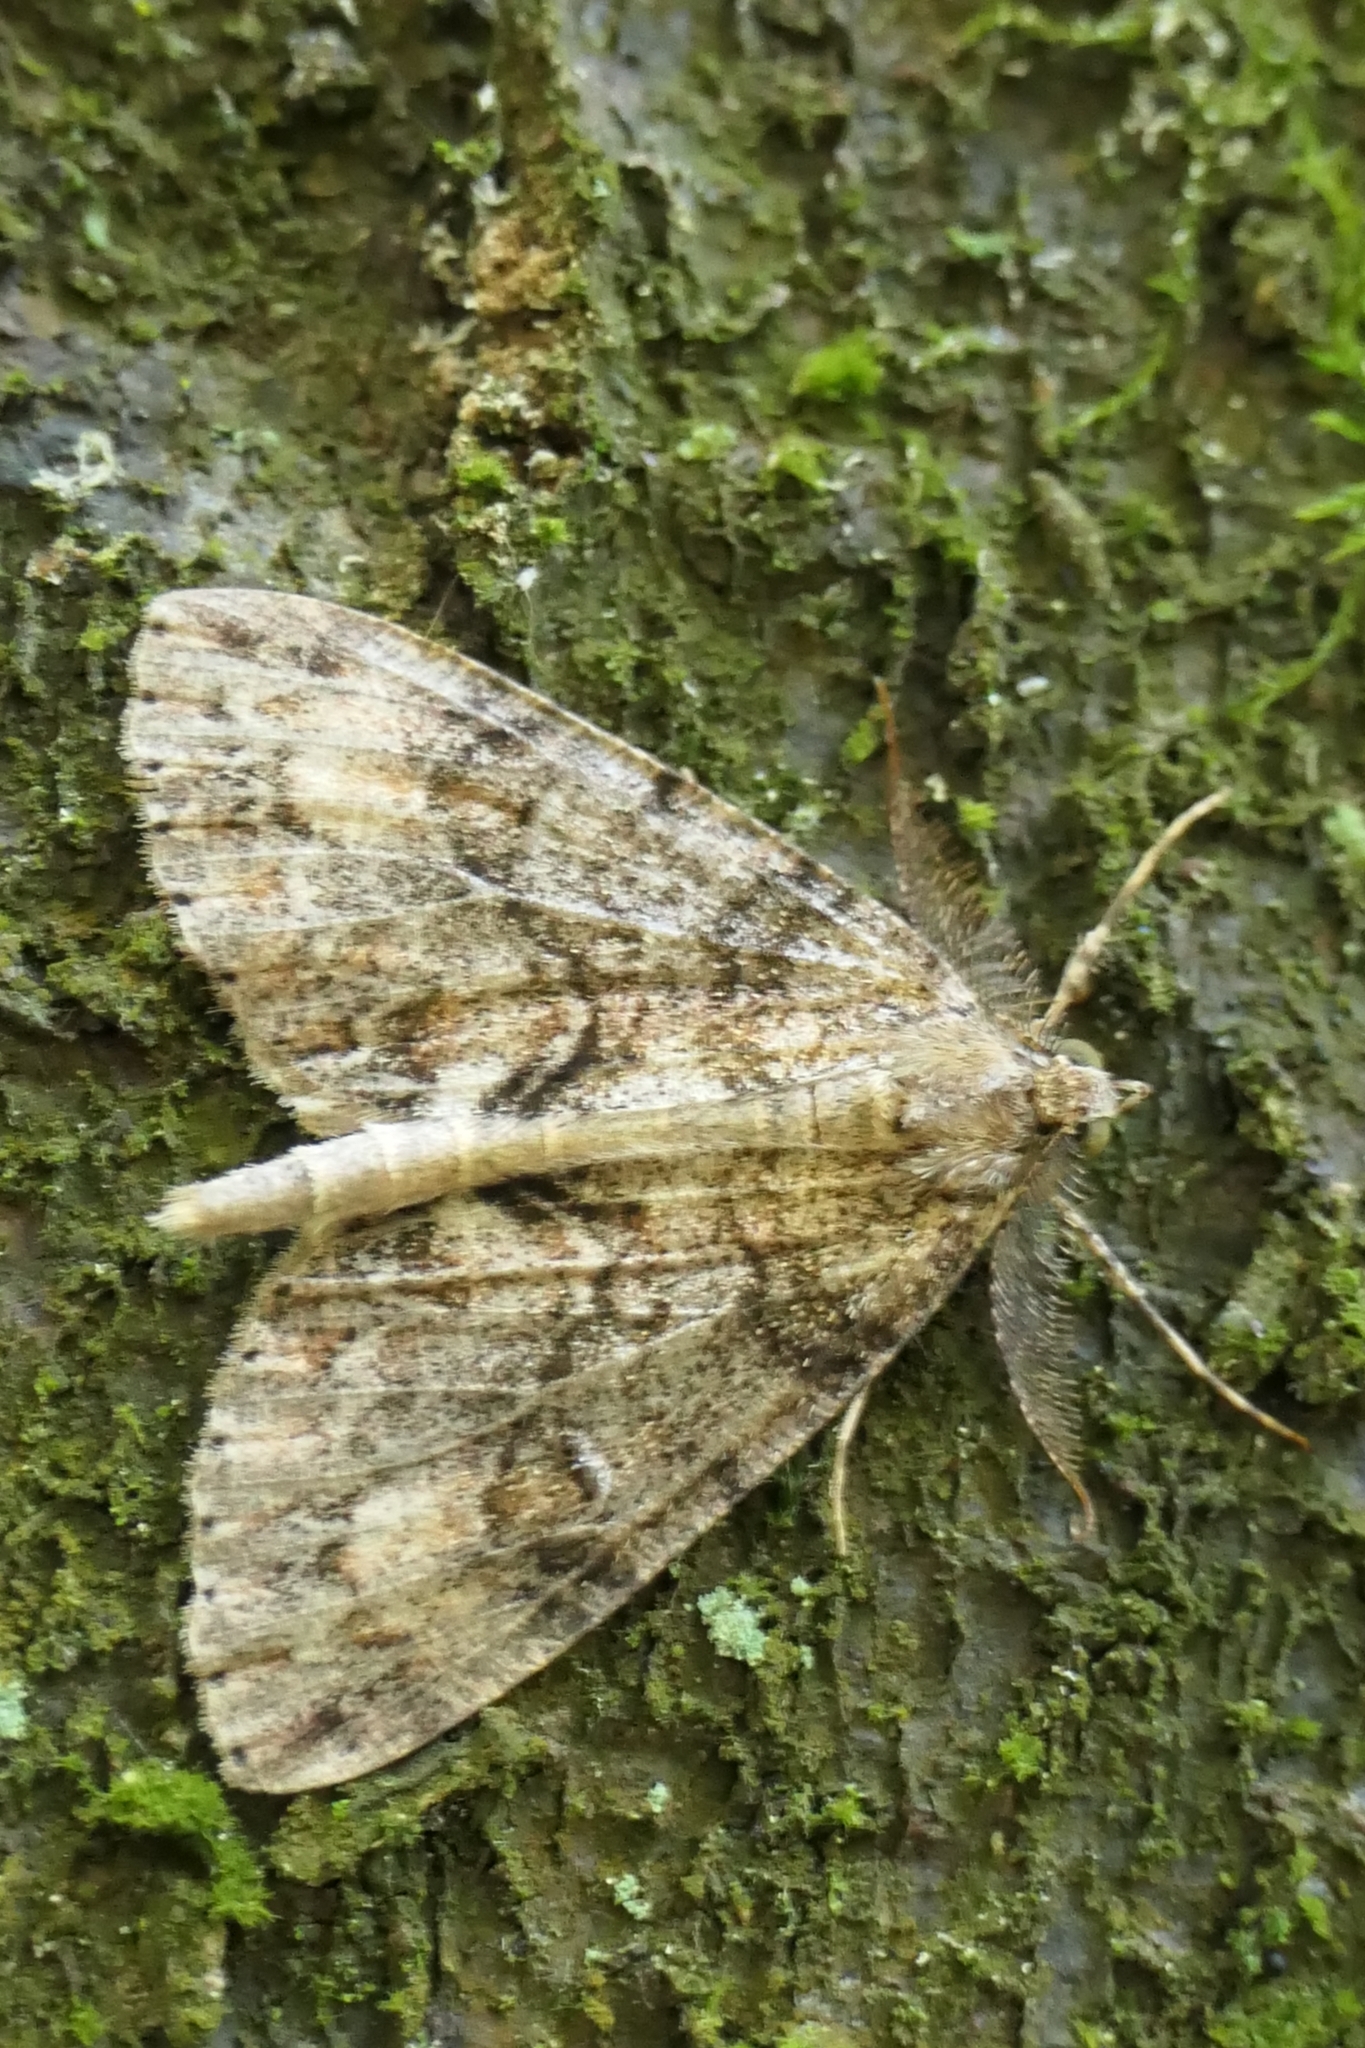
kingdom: Animalia
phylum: Arthropoda
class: Insecta
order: Lepidoptera
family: Geometridae
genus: Pseudocoremia
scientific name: Pseudocoremia suavis
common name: Common forest looper
